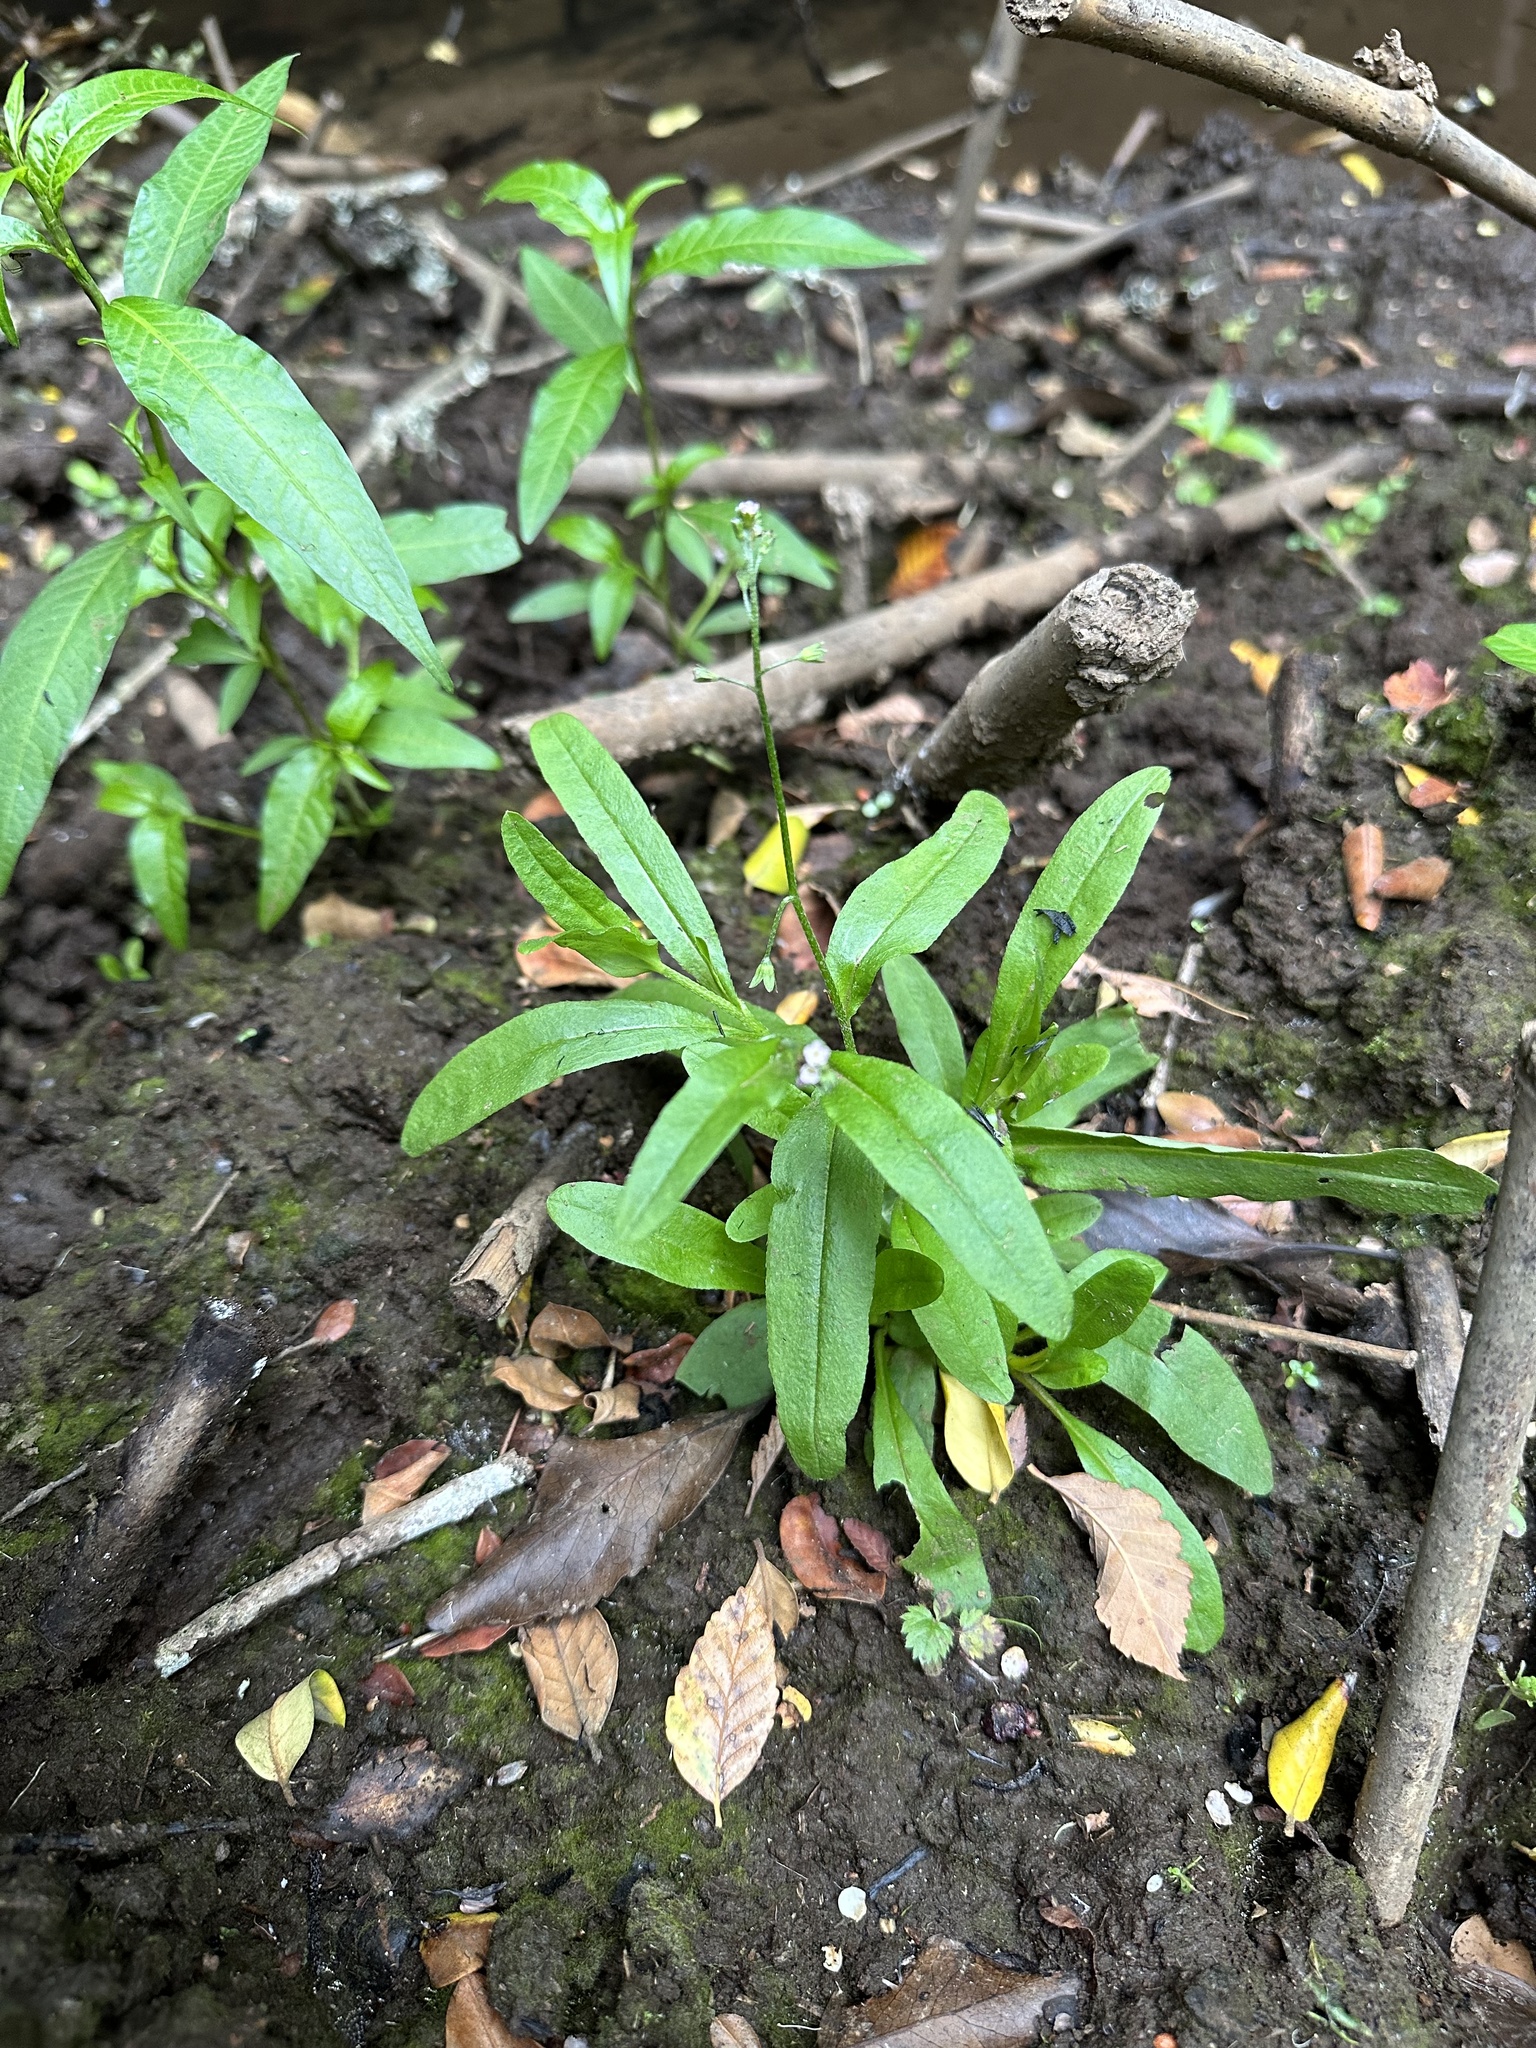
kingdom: Plantae
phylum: Tracheophyta
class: Magnoliopsida
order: Boraginales
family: Boraginaceae
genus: Myosotis
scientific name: Myosotis laxa
